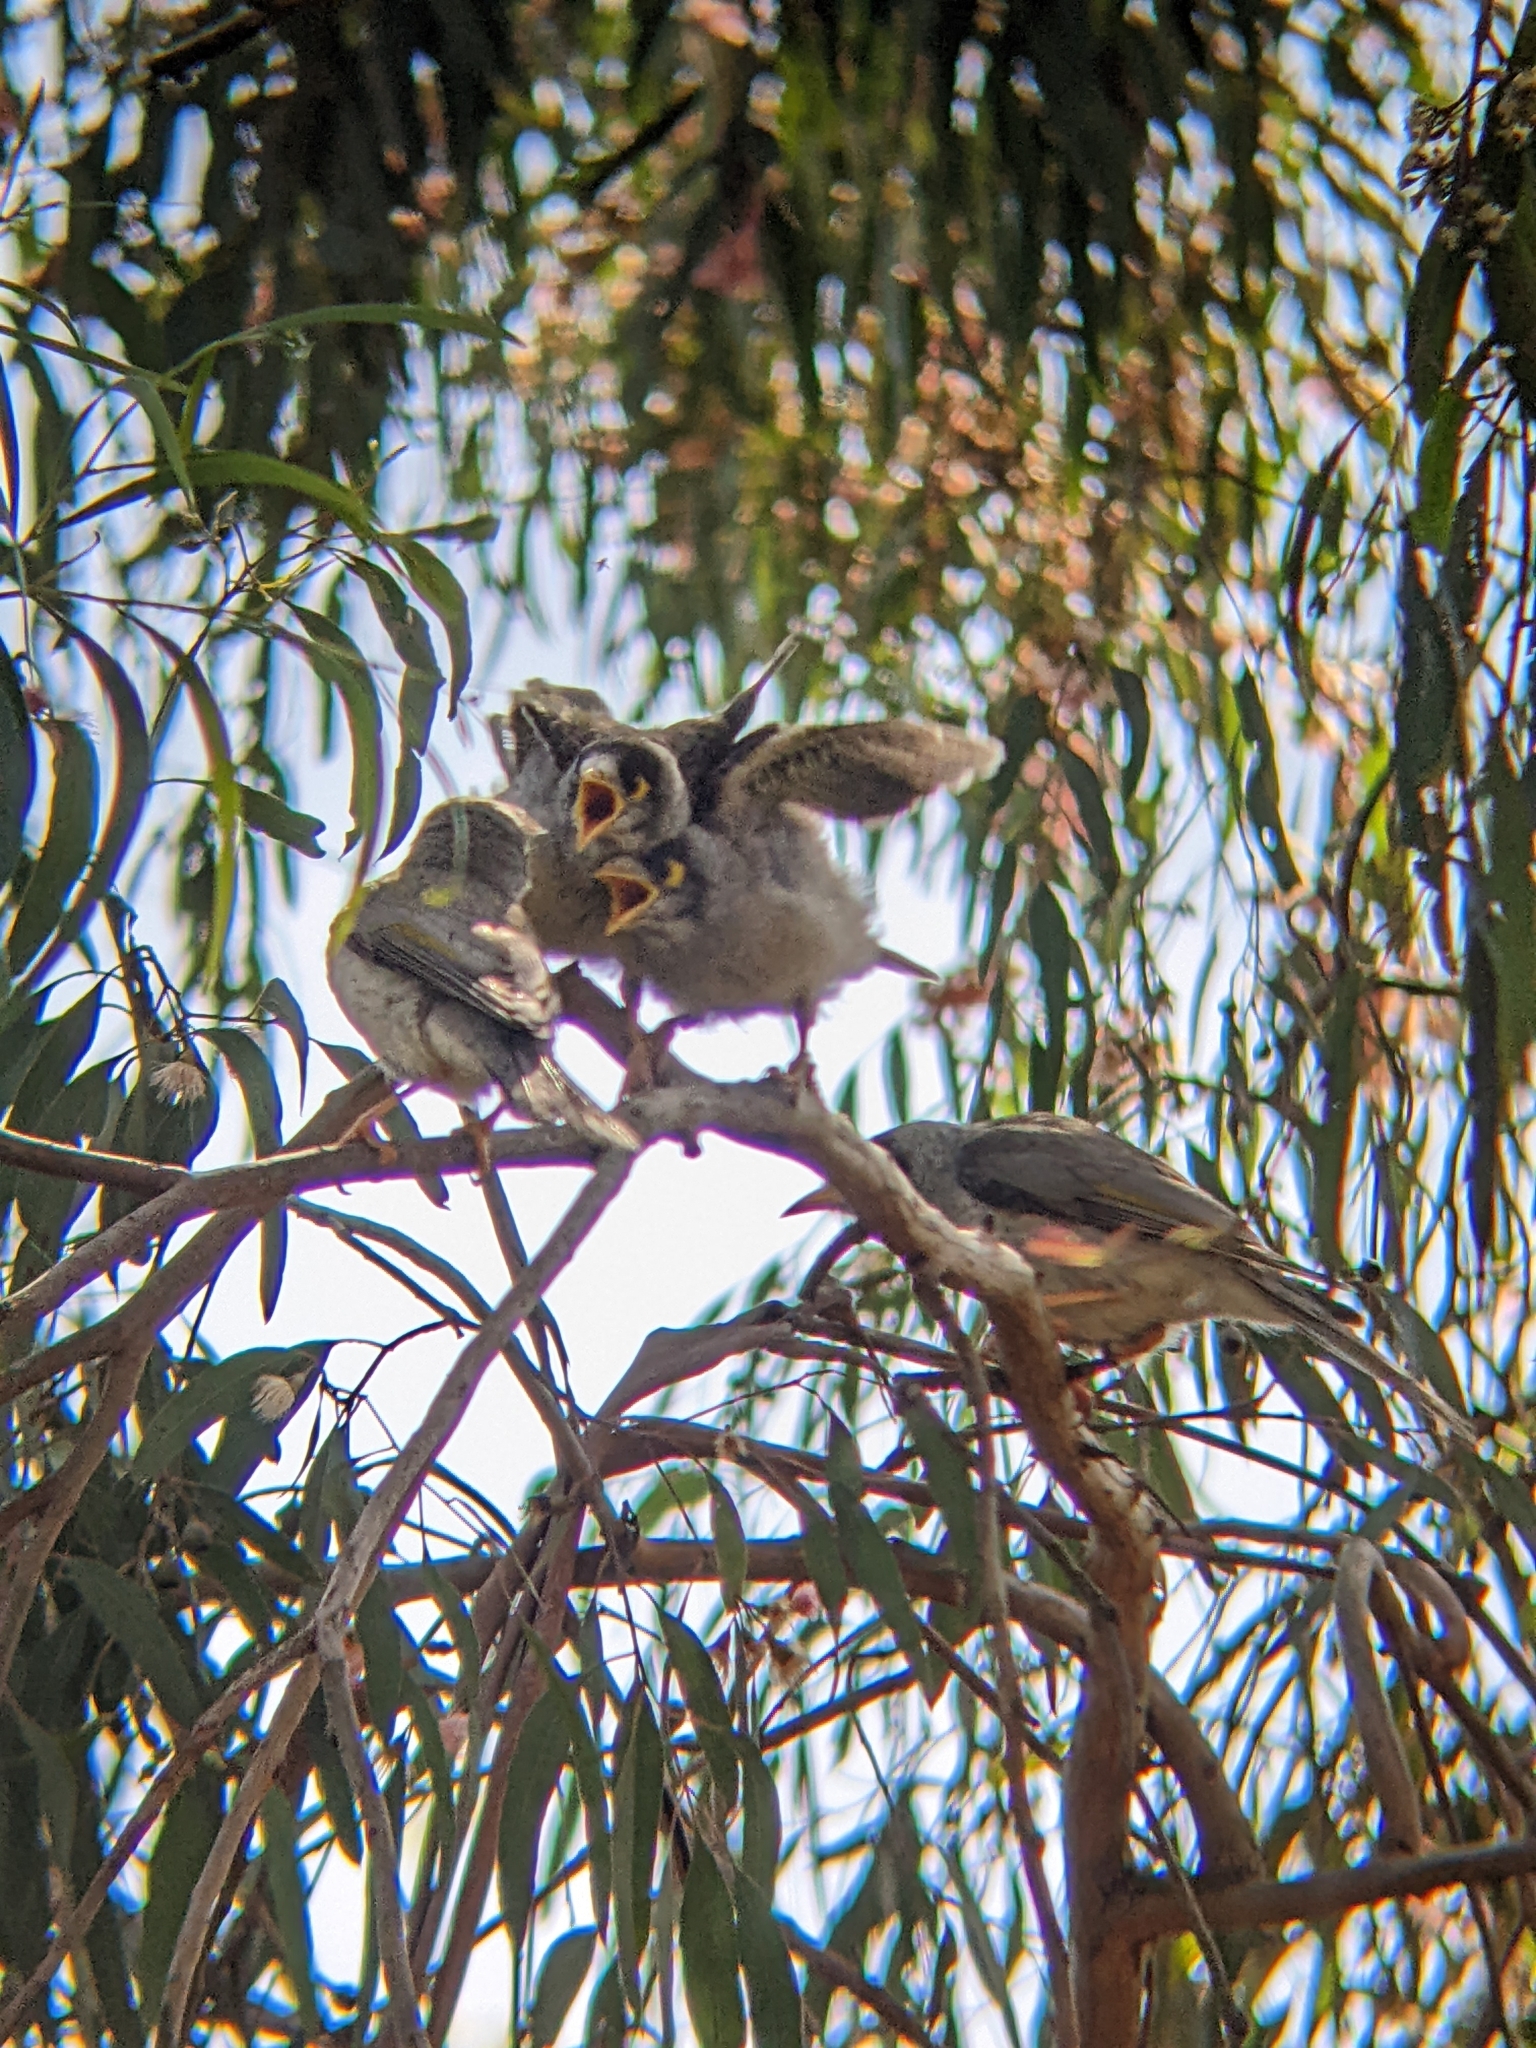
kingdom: Animalia
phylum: Chordata
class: Aves
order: Passeriformes
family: Meliphagidae
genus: Manorina
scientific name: Manorina melanocephala
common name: Noisy miner
